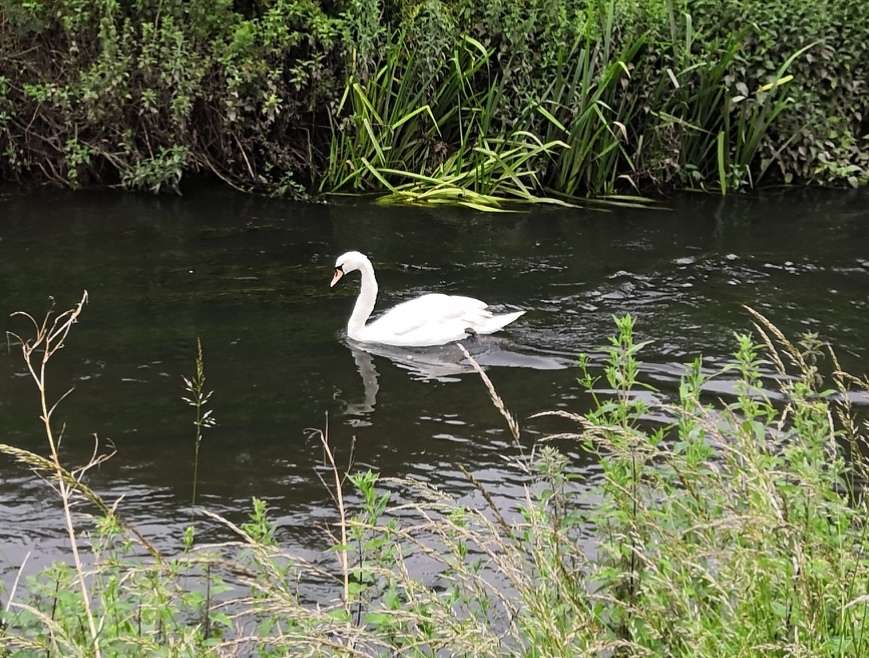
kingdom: Animalia
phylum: Chordata
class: Aves
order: Anseriformes
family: Anatidae
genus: Cygnus
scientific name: Cygnus olor
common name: Mute swan
